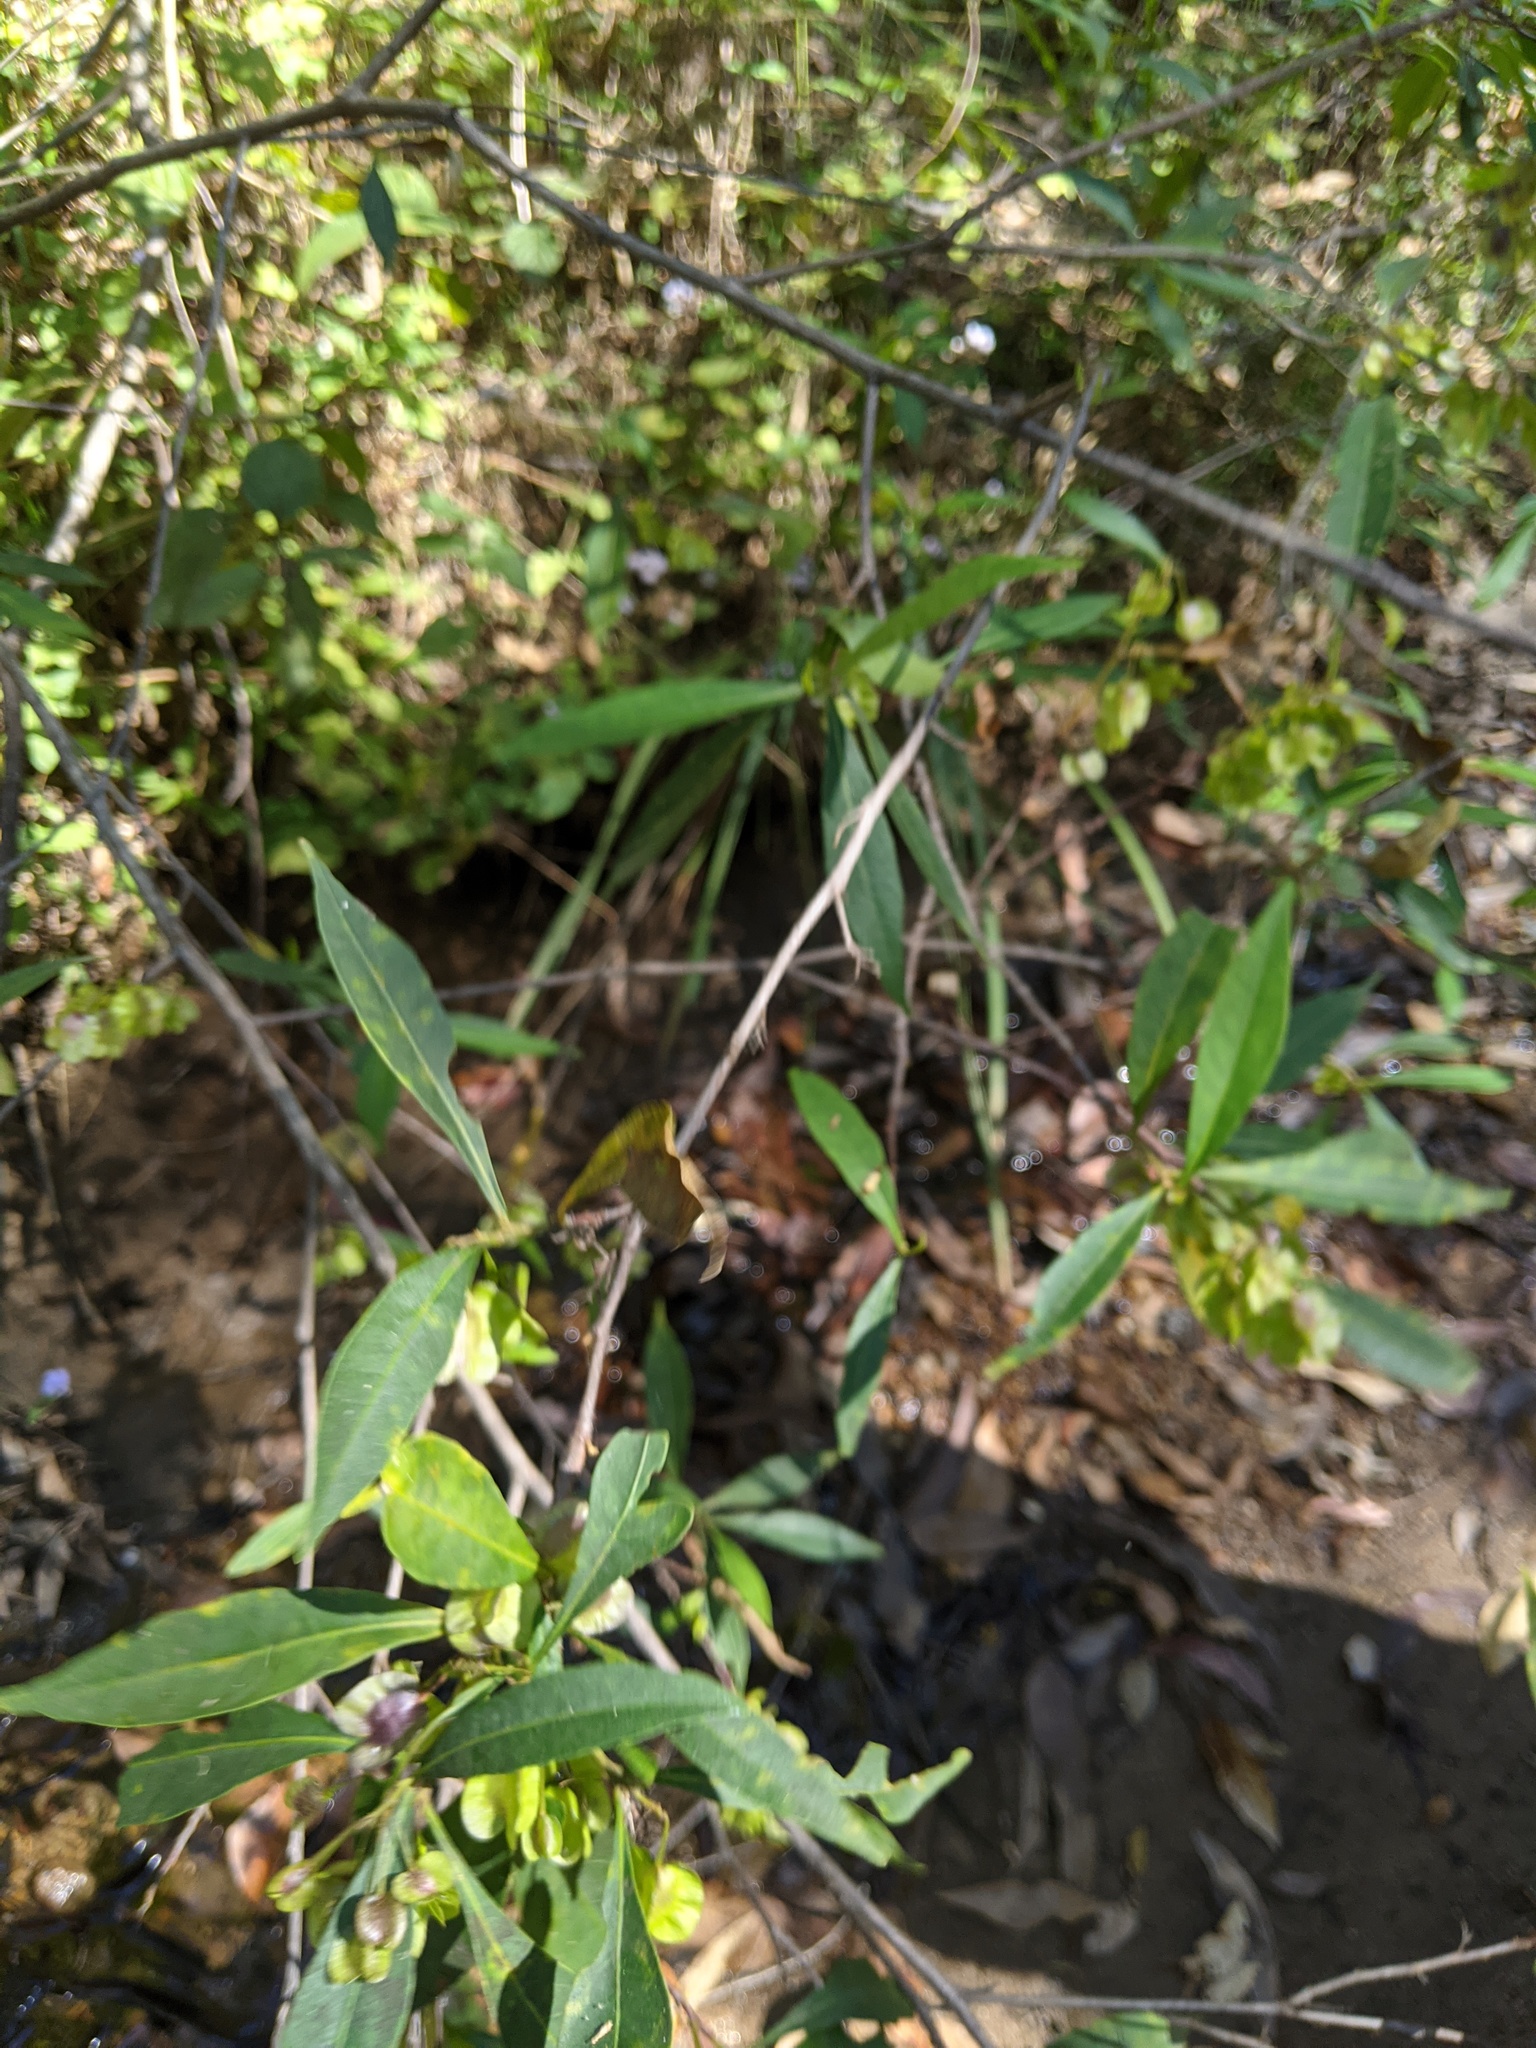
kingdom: Plantae
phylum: Tracheophyta
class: Magnoliopsida
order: Sapindales
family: Sapindaceae
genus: Dodonaea
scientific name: Dodonaea triquetra
